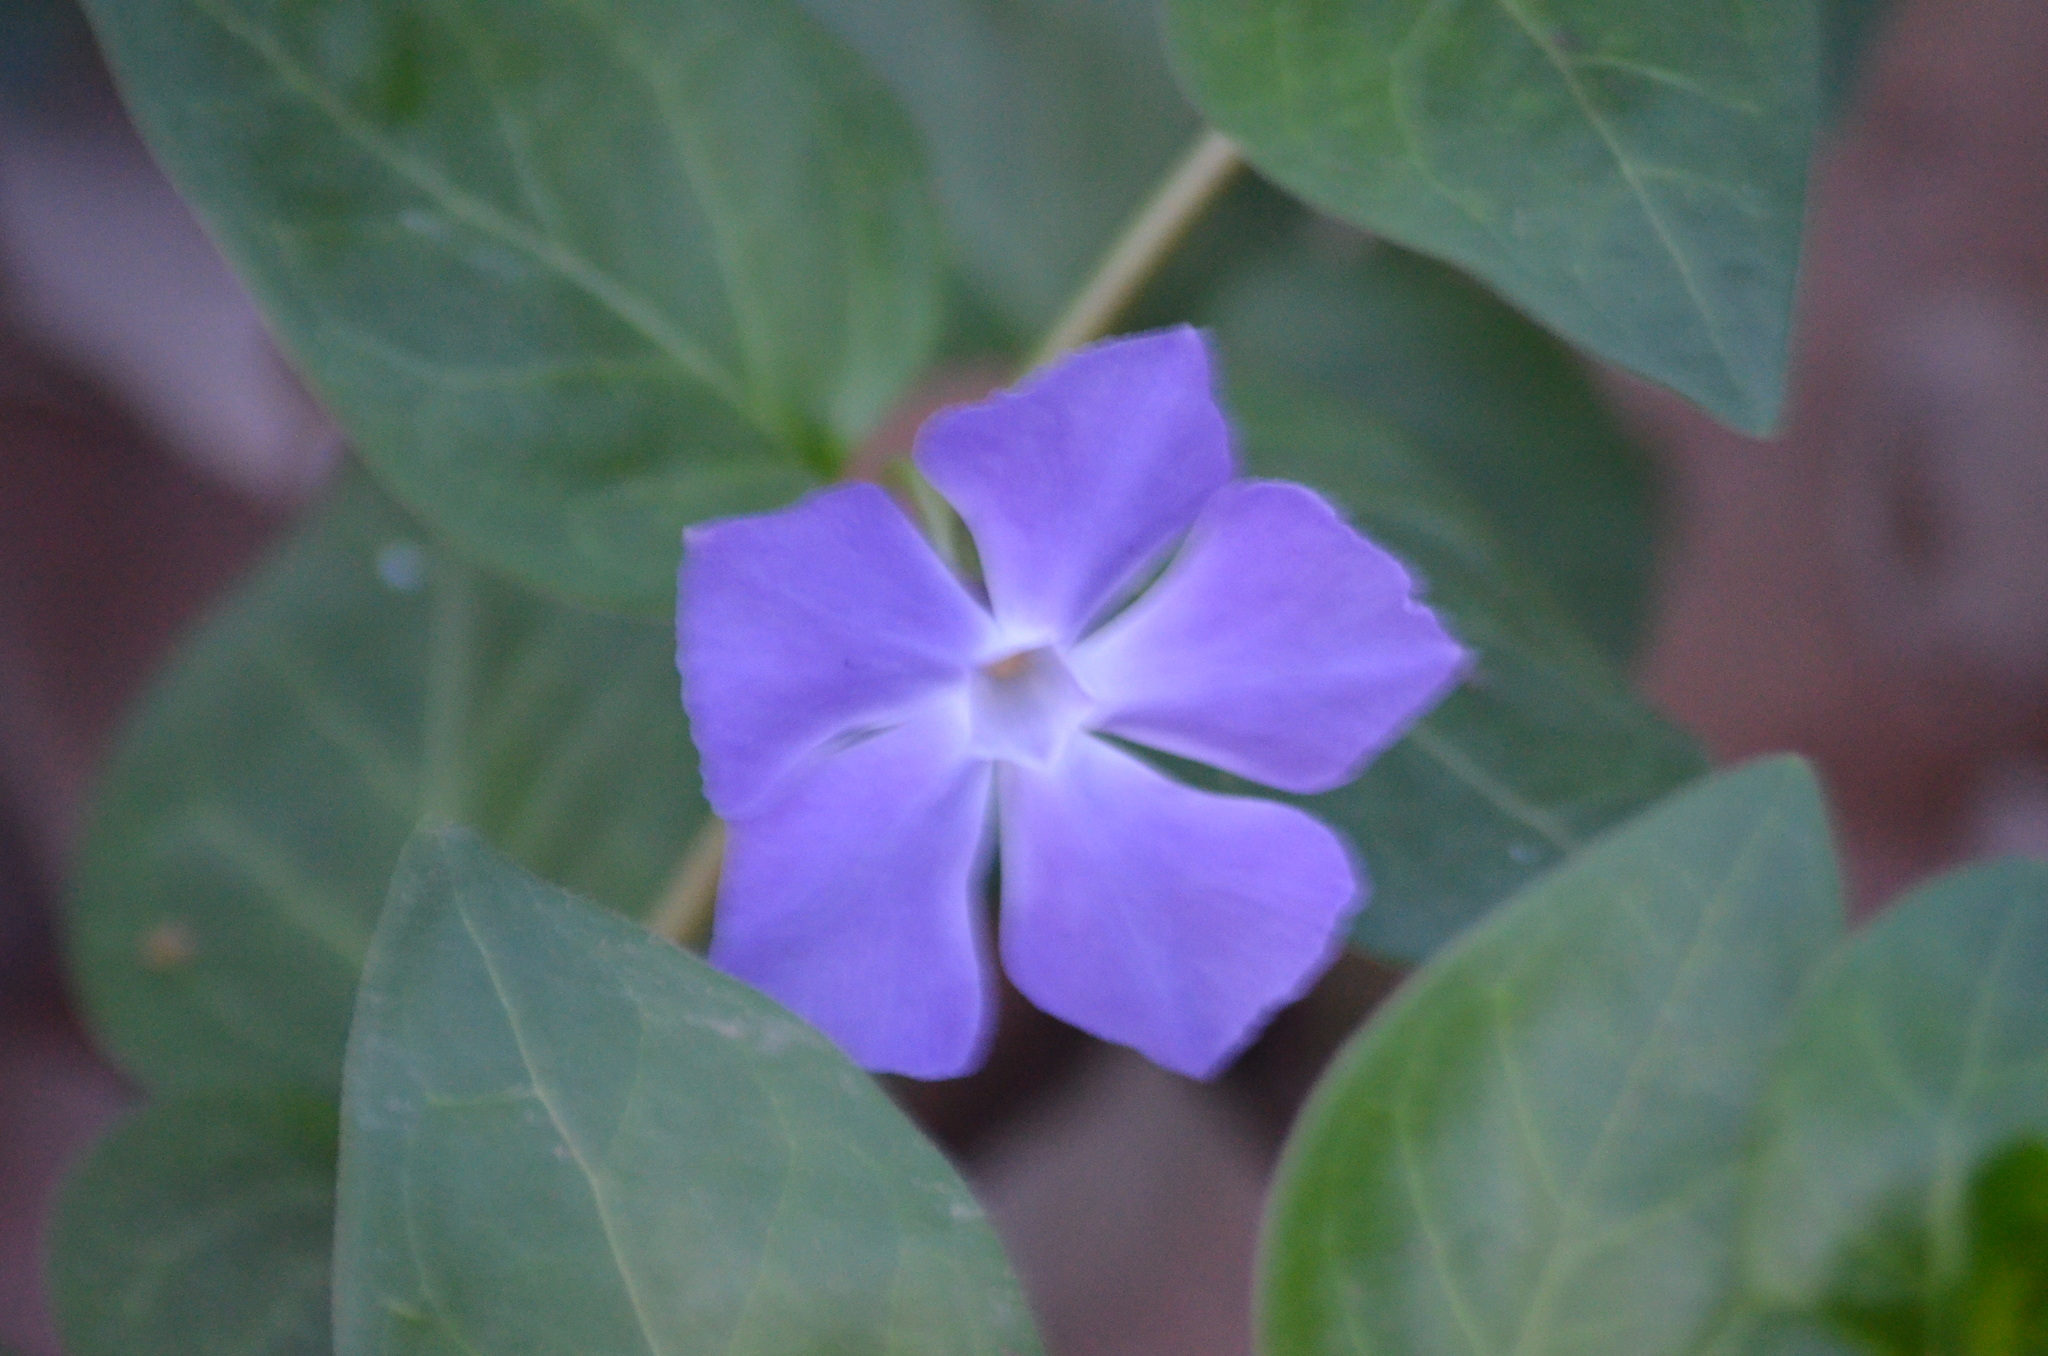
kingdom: Plantae
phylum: Tracheophyta
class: Magnoliopsida
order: Gentianales
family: Apocynaceae
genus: Vinca
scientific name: Vinca major
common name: Greater periwinkle
